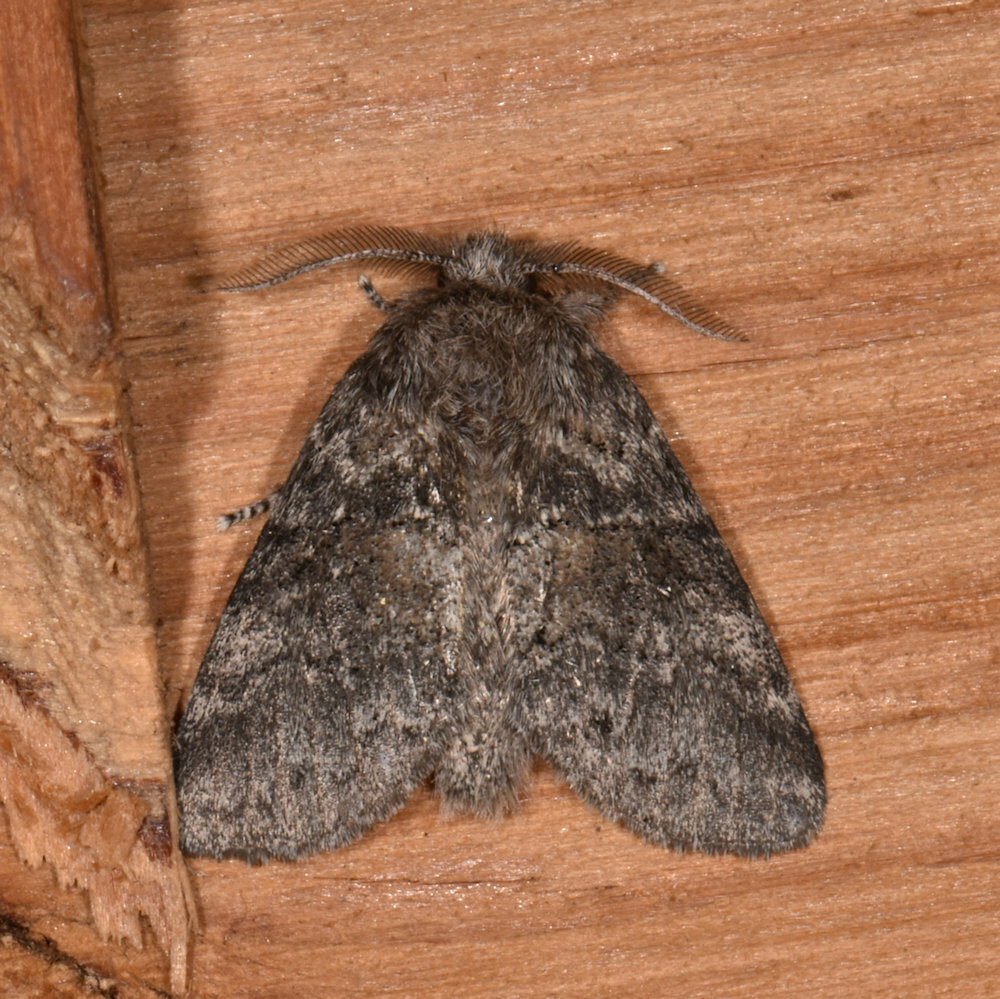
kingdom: Animalia
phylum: Arthropoda
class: Insecta
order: Lepidoptera
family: Notodontidae
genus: Gluphisia
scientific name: Gluphisia septentrionis
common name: Common gluphisia
